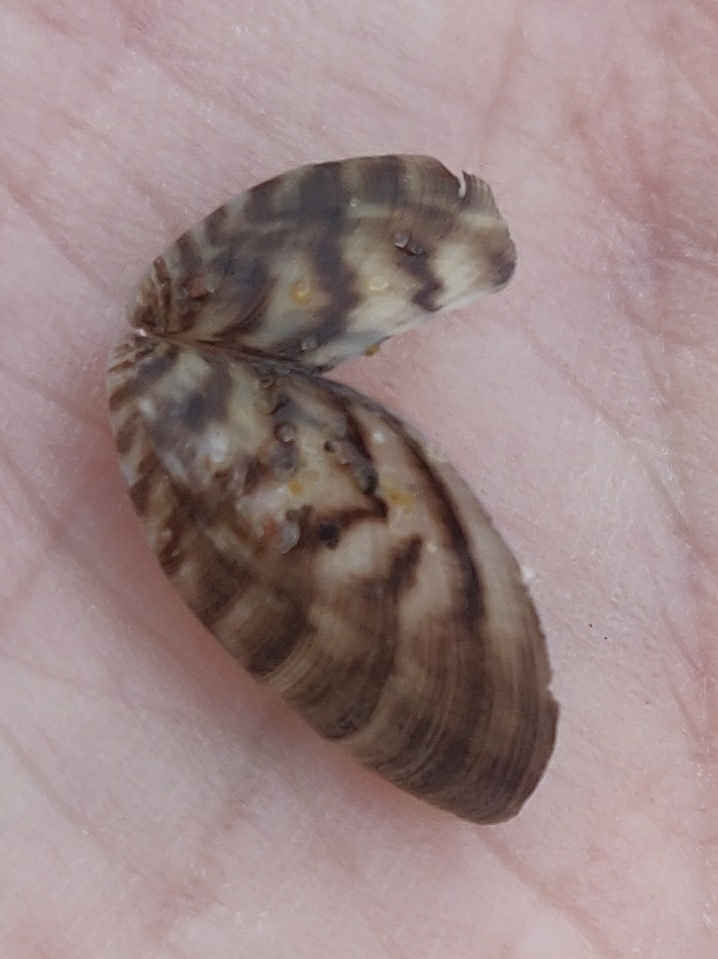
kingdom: Animalia
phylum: Mollusca
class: Bivalvia
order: Myida
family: Dreissenidae
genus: Dreissena
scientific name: Dreissena polymorpha
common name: Zebra mussel
